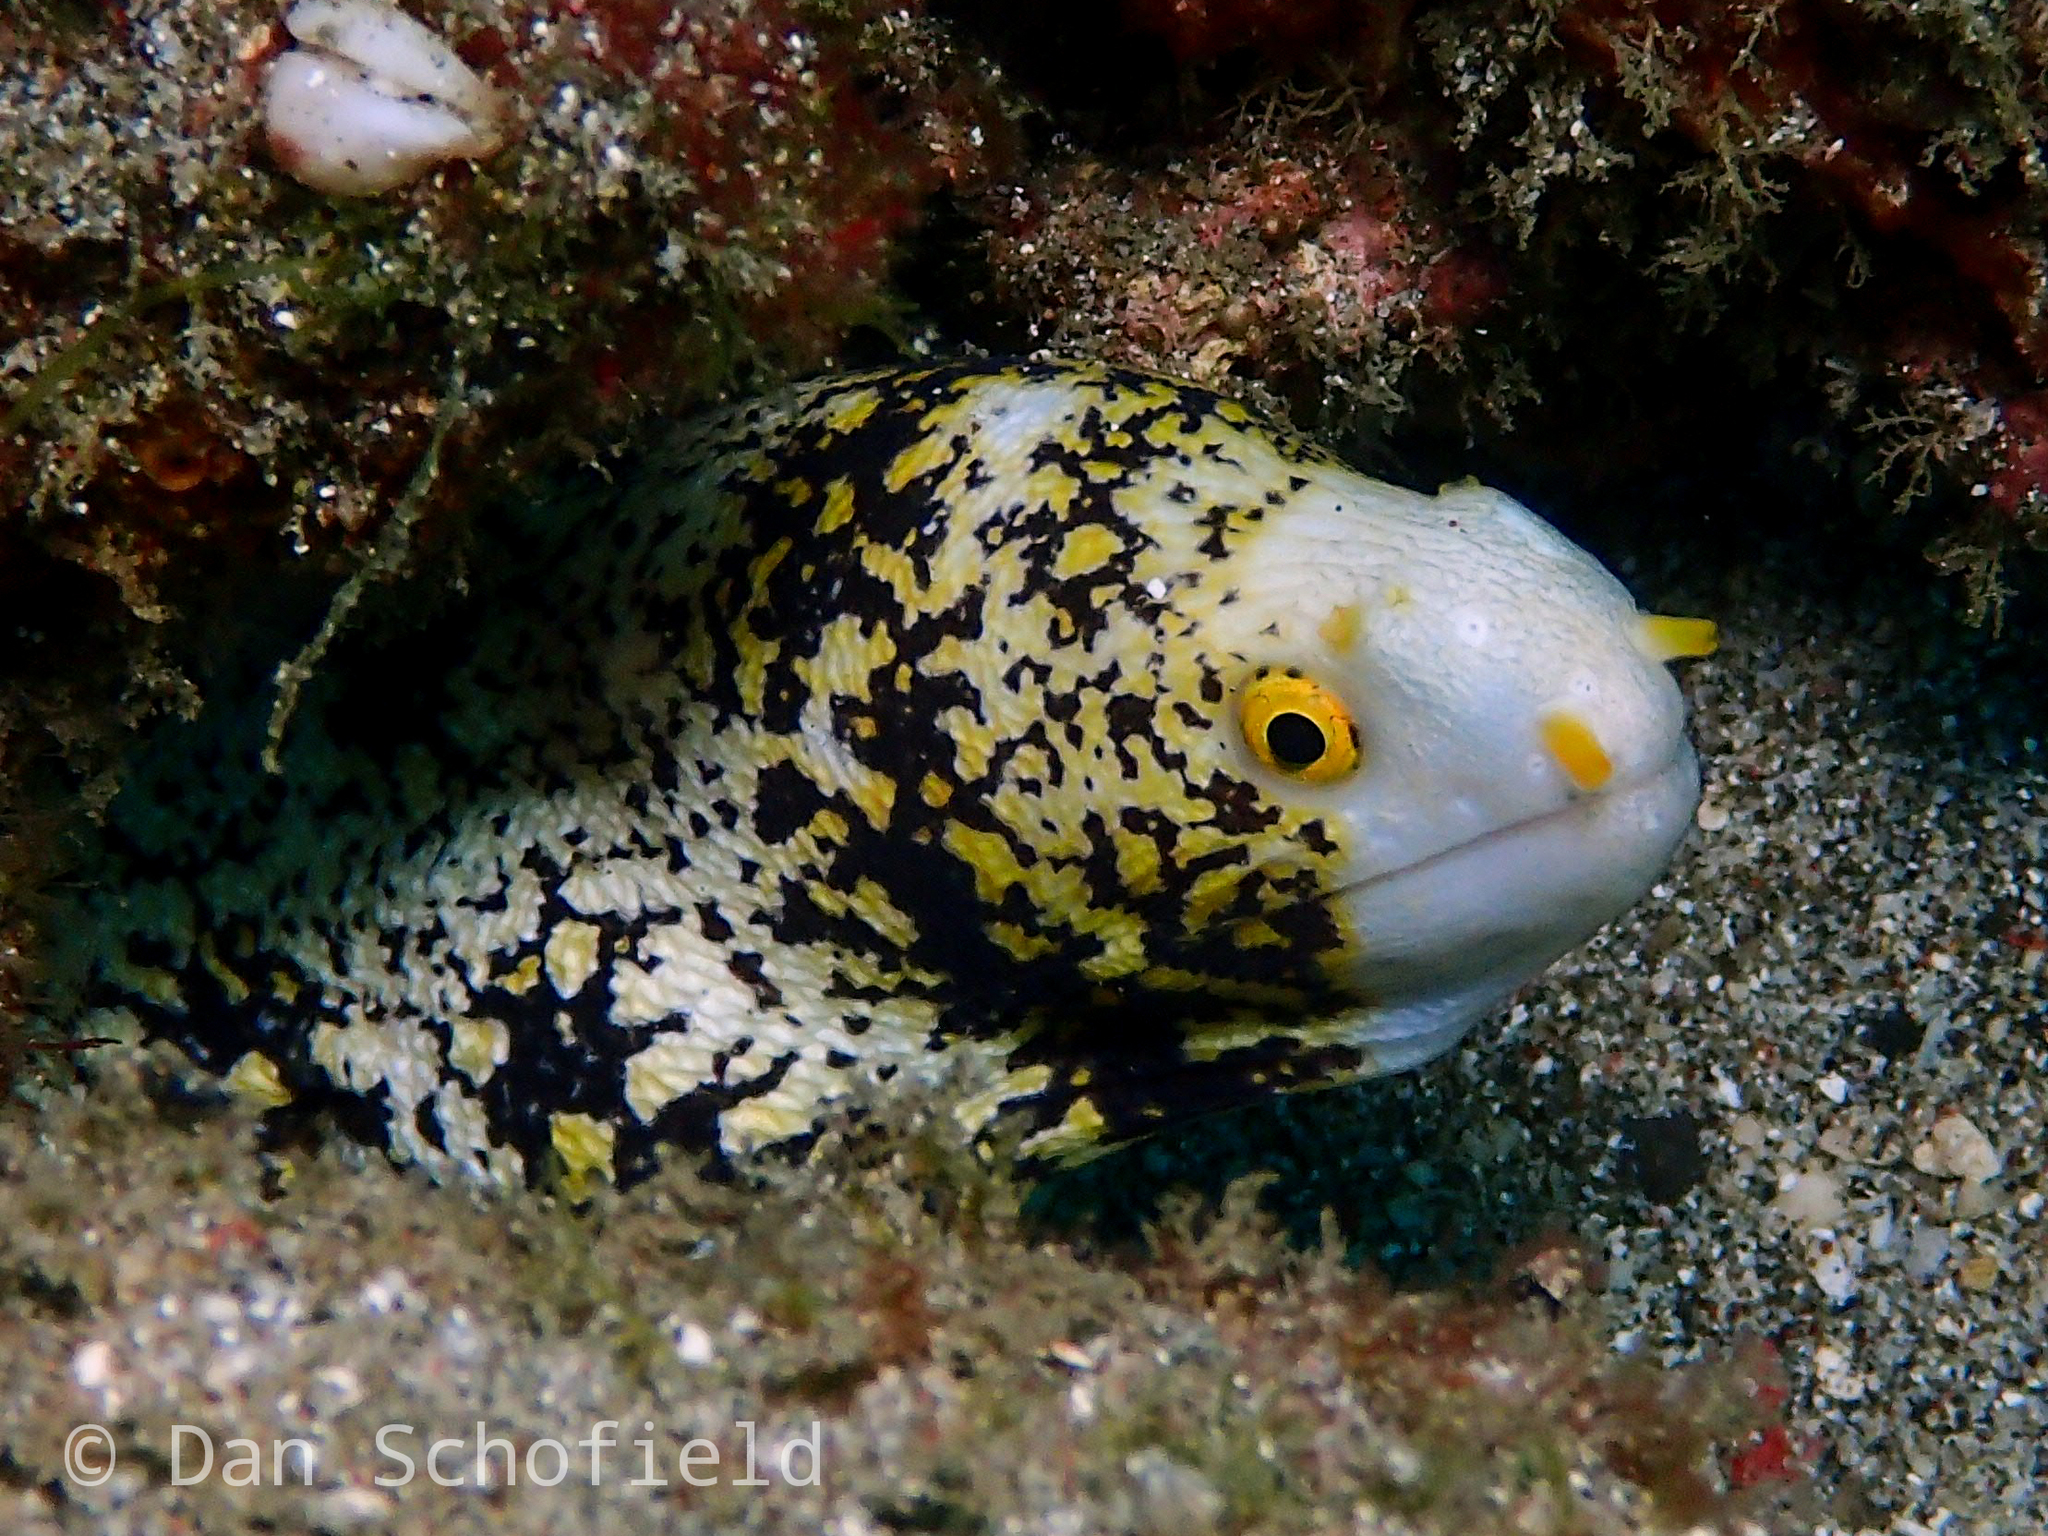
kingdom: Animalia
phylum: Chordata
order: Anguilliformes
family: Muraenidae
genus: Echidna
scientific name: Echidna nebulosa
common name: Snowflake moray
